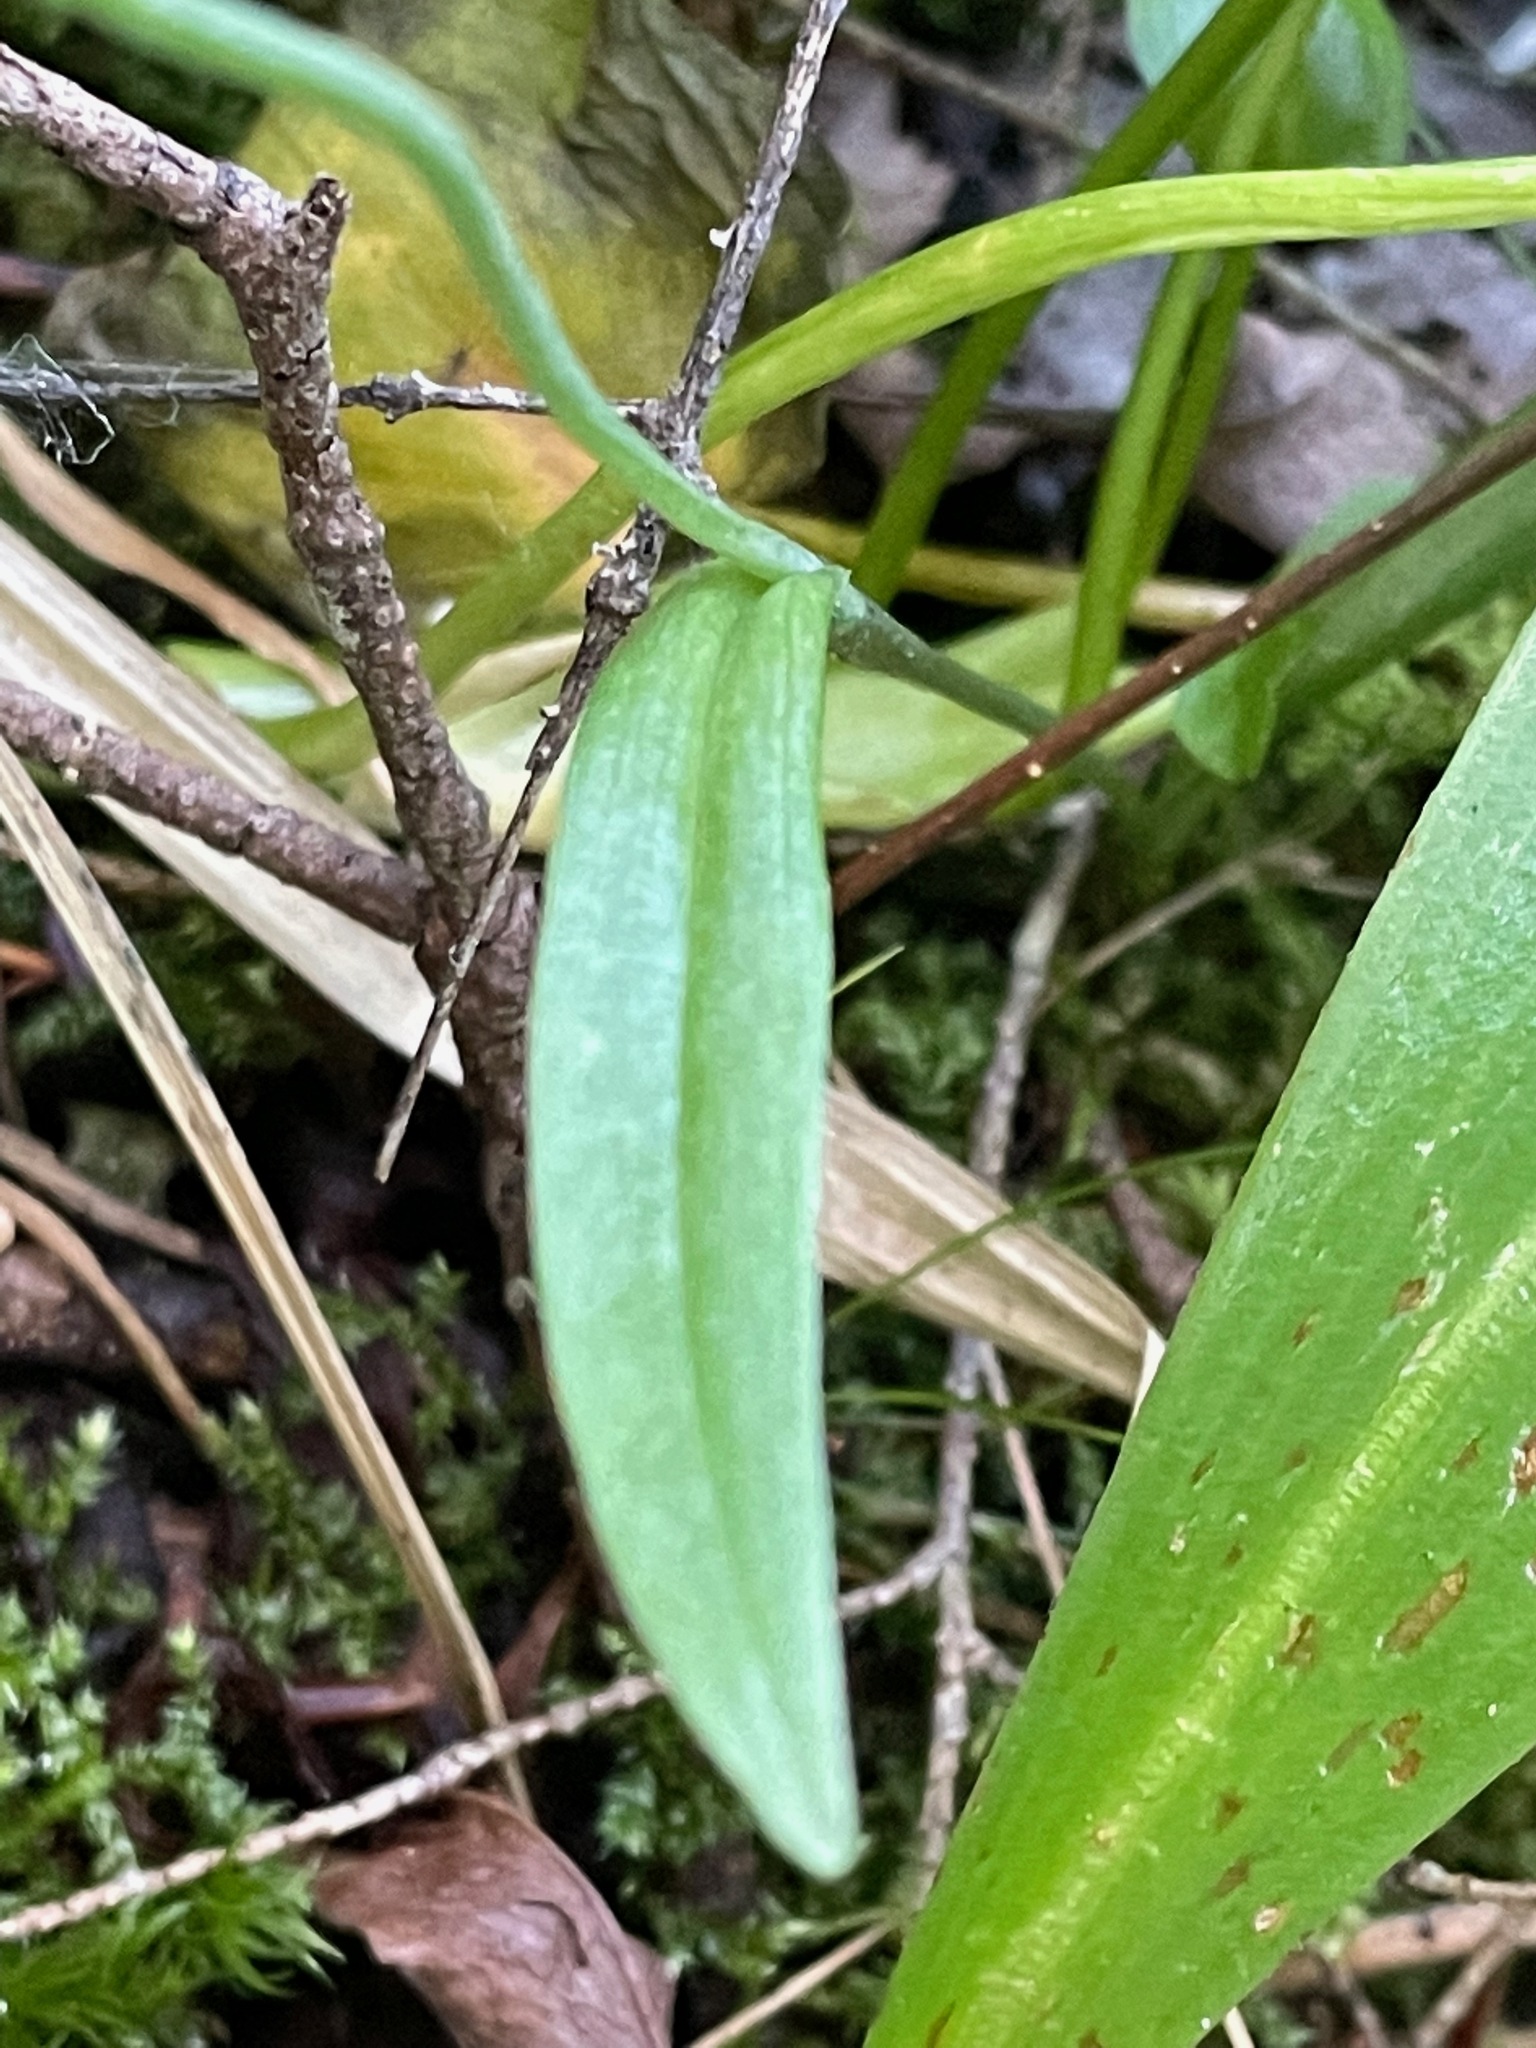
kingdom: Plantae
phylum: Tracheophyta
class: Liliopsida
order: Asparagales
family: Orchidaceae
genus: Platanthera
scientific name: Platanthera clavellata
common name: Club-spur orchid
